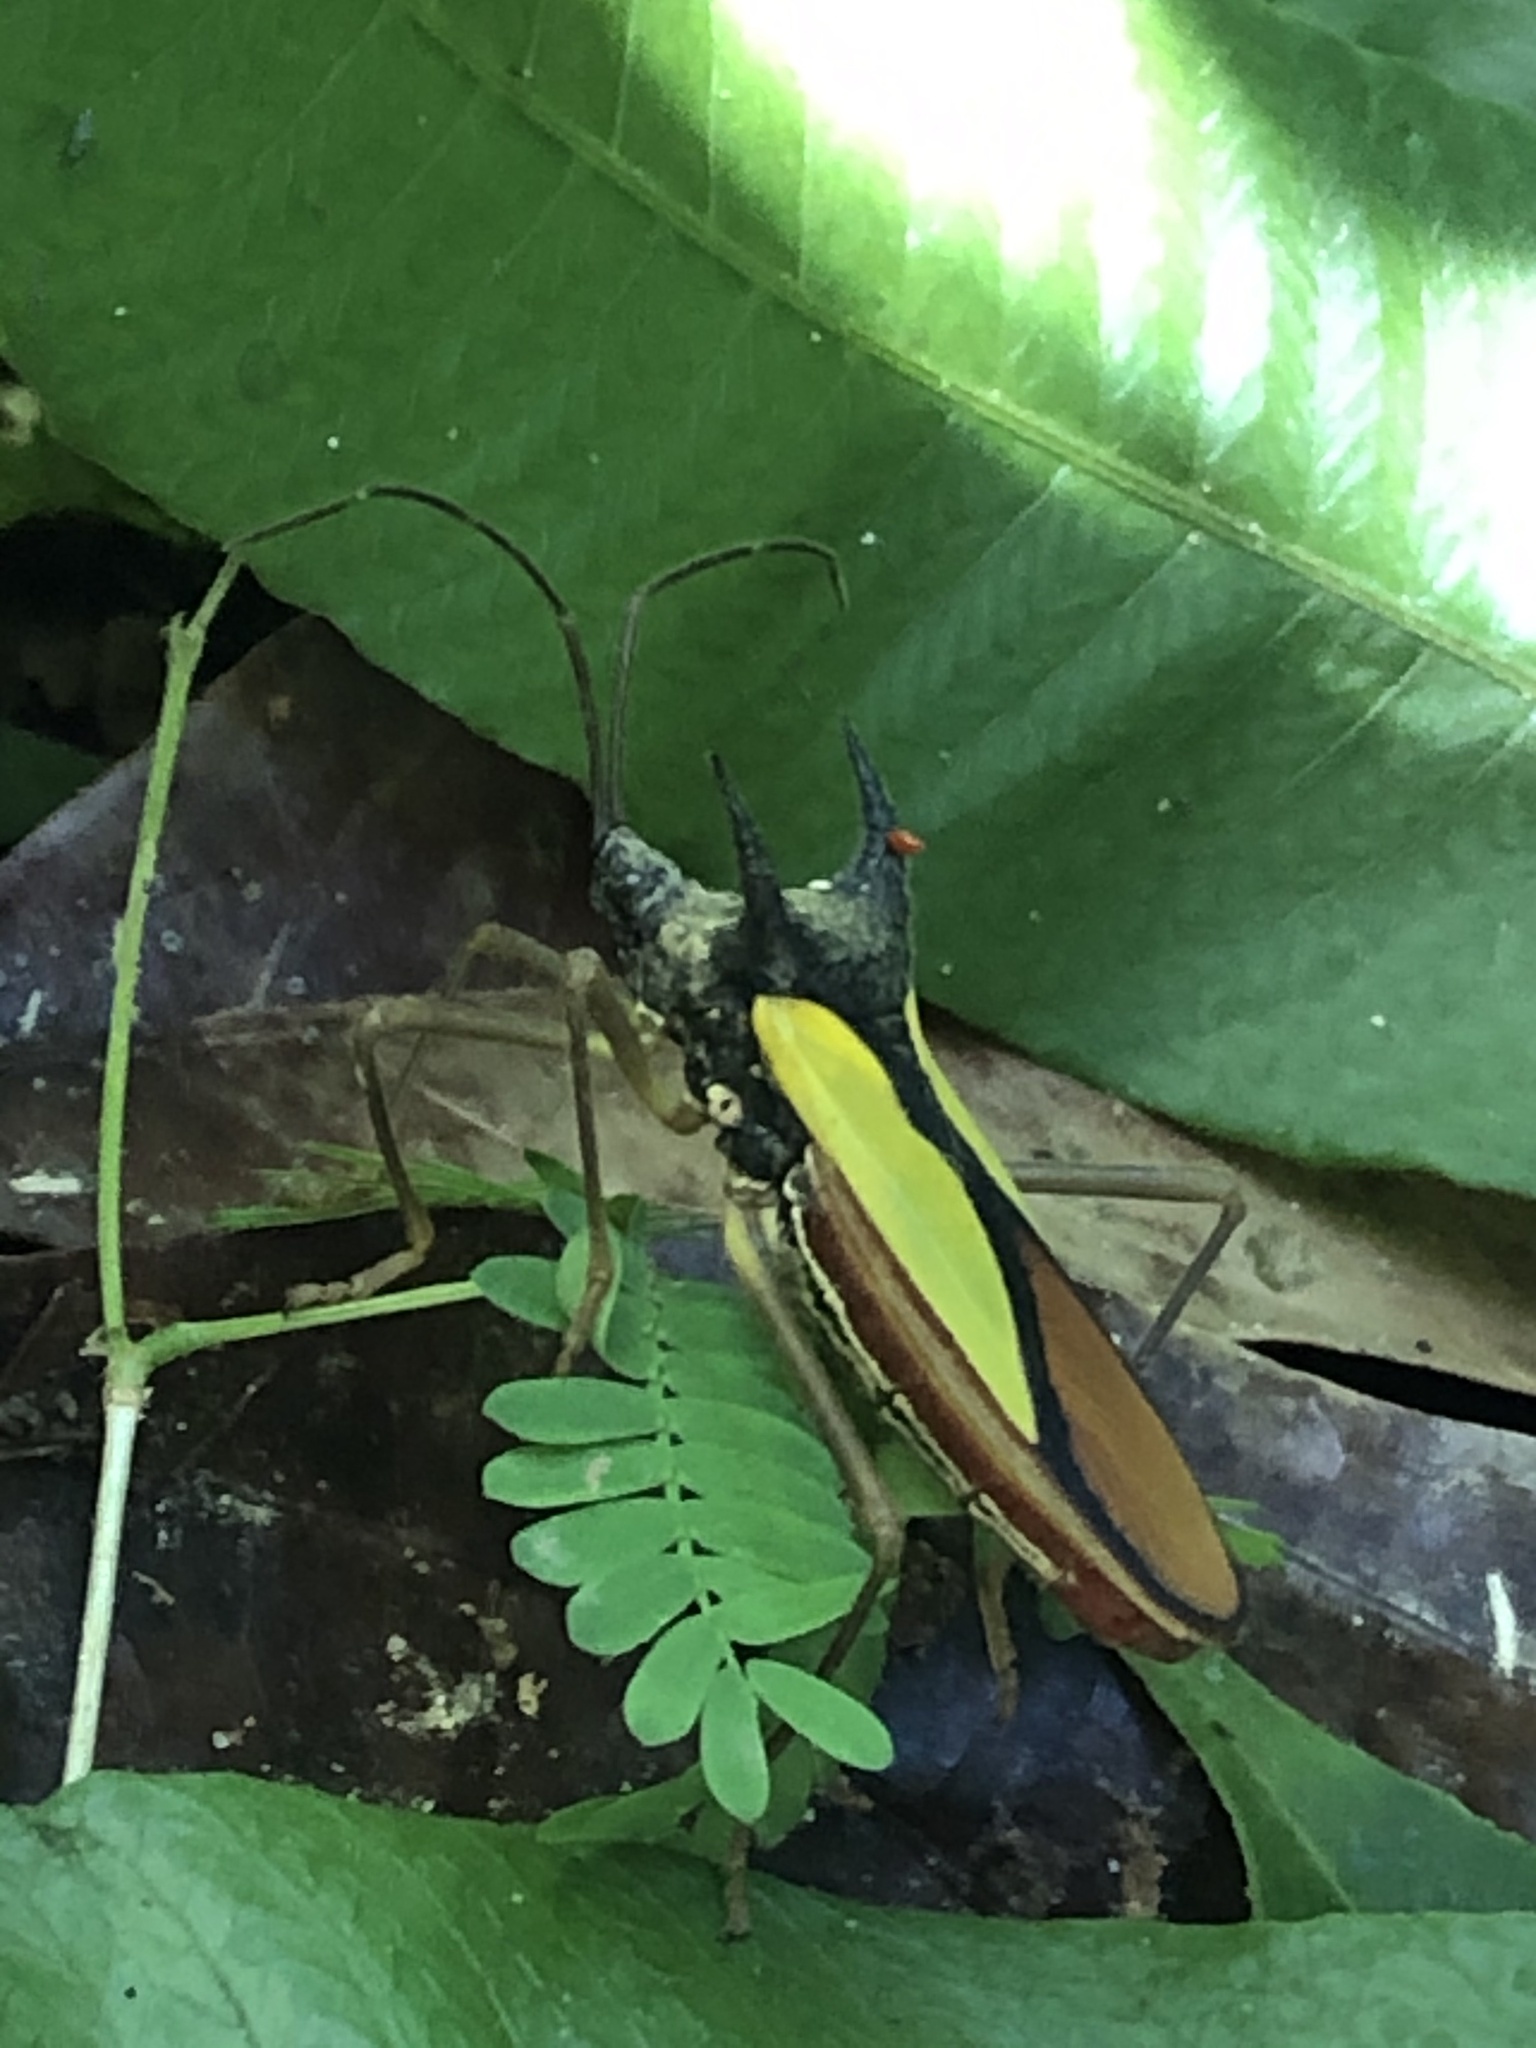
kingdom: Animalia
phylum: Arthropoda
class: Insecta
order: Hemiptera
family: Coreidae
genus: Euagona
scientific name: Euagona diana
